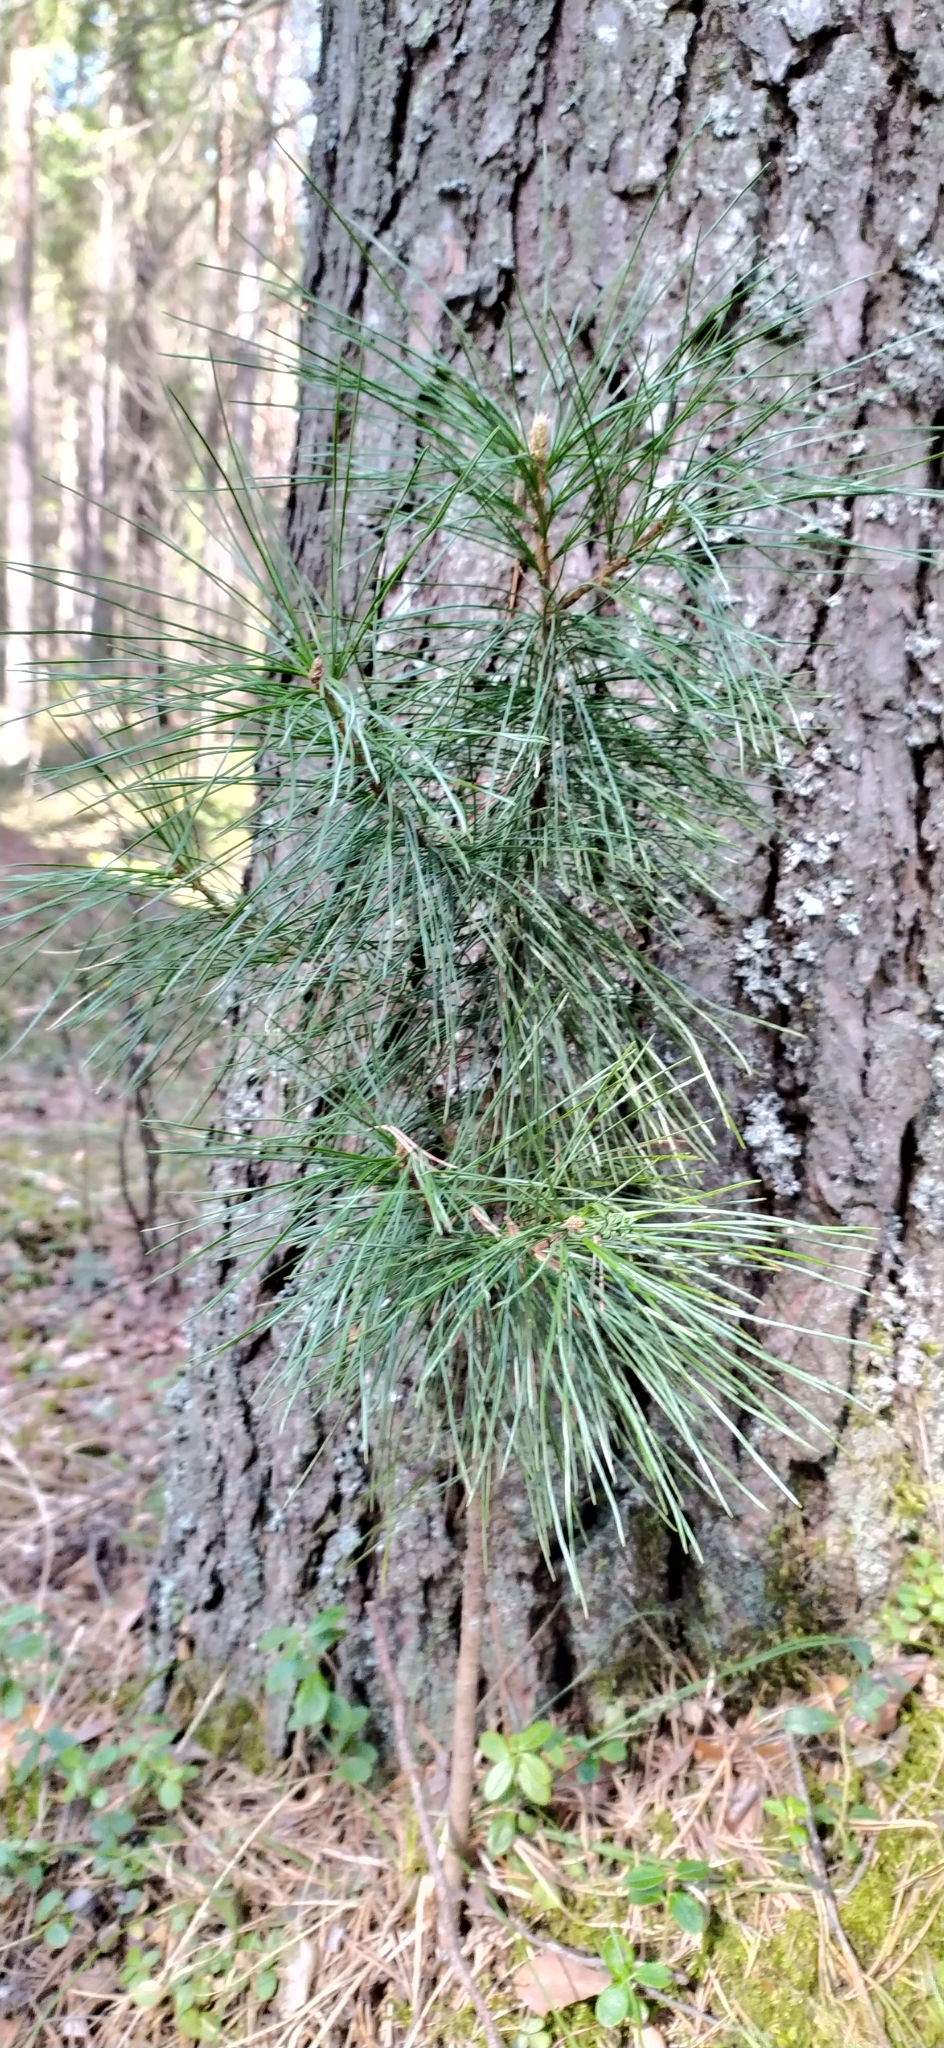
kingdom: Plantae
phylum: Tracheophyta
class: Pinopsida
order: Pinales
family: Pinaceae
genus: Pinus
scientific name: Pinus sibirica
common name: Siberian pine
